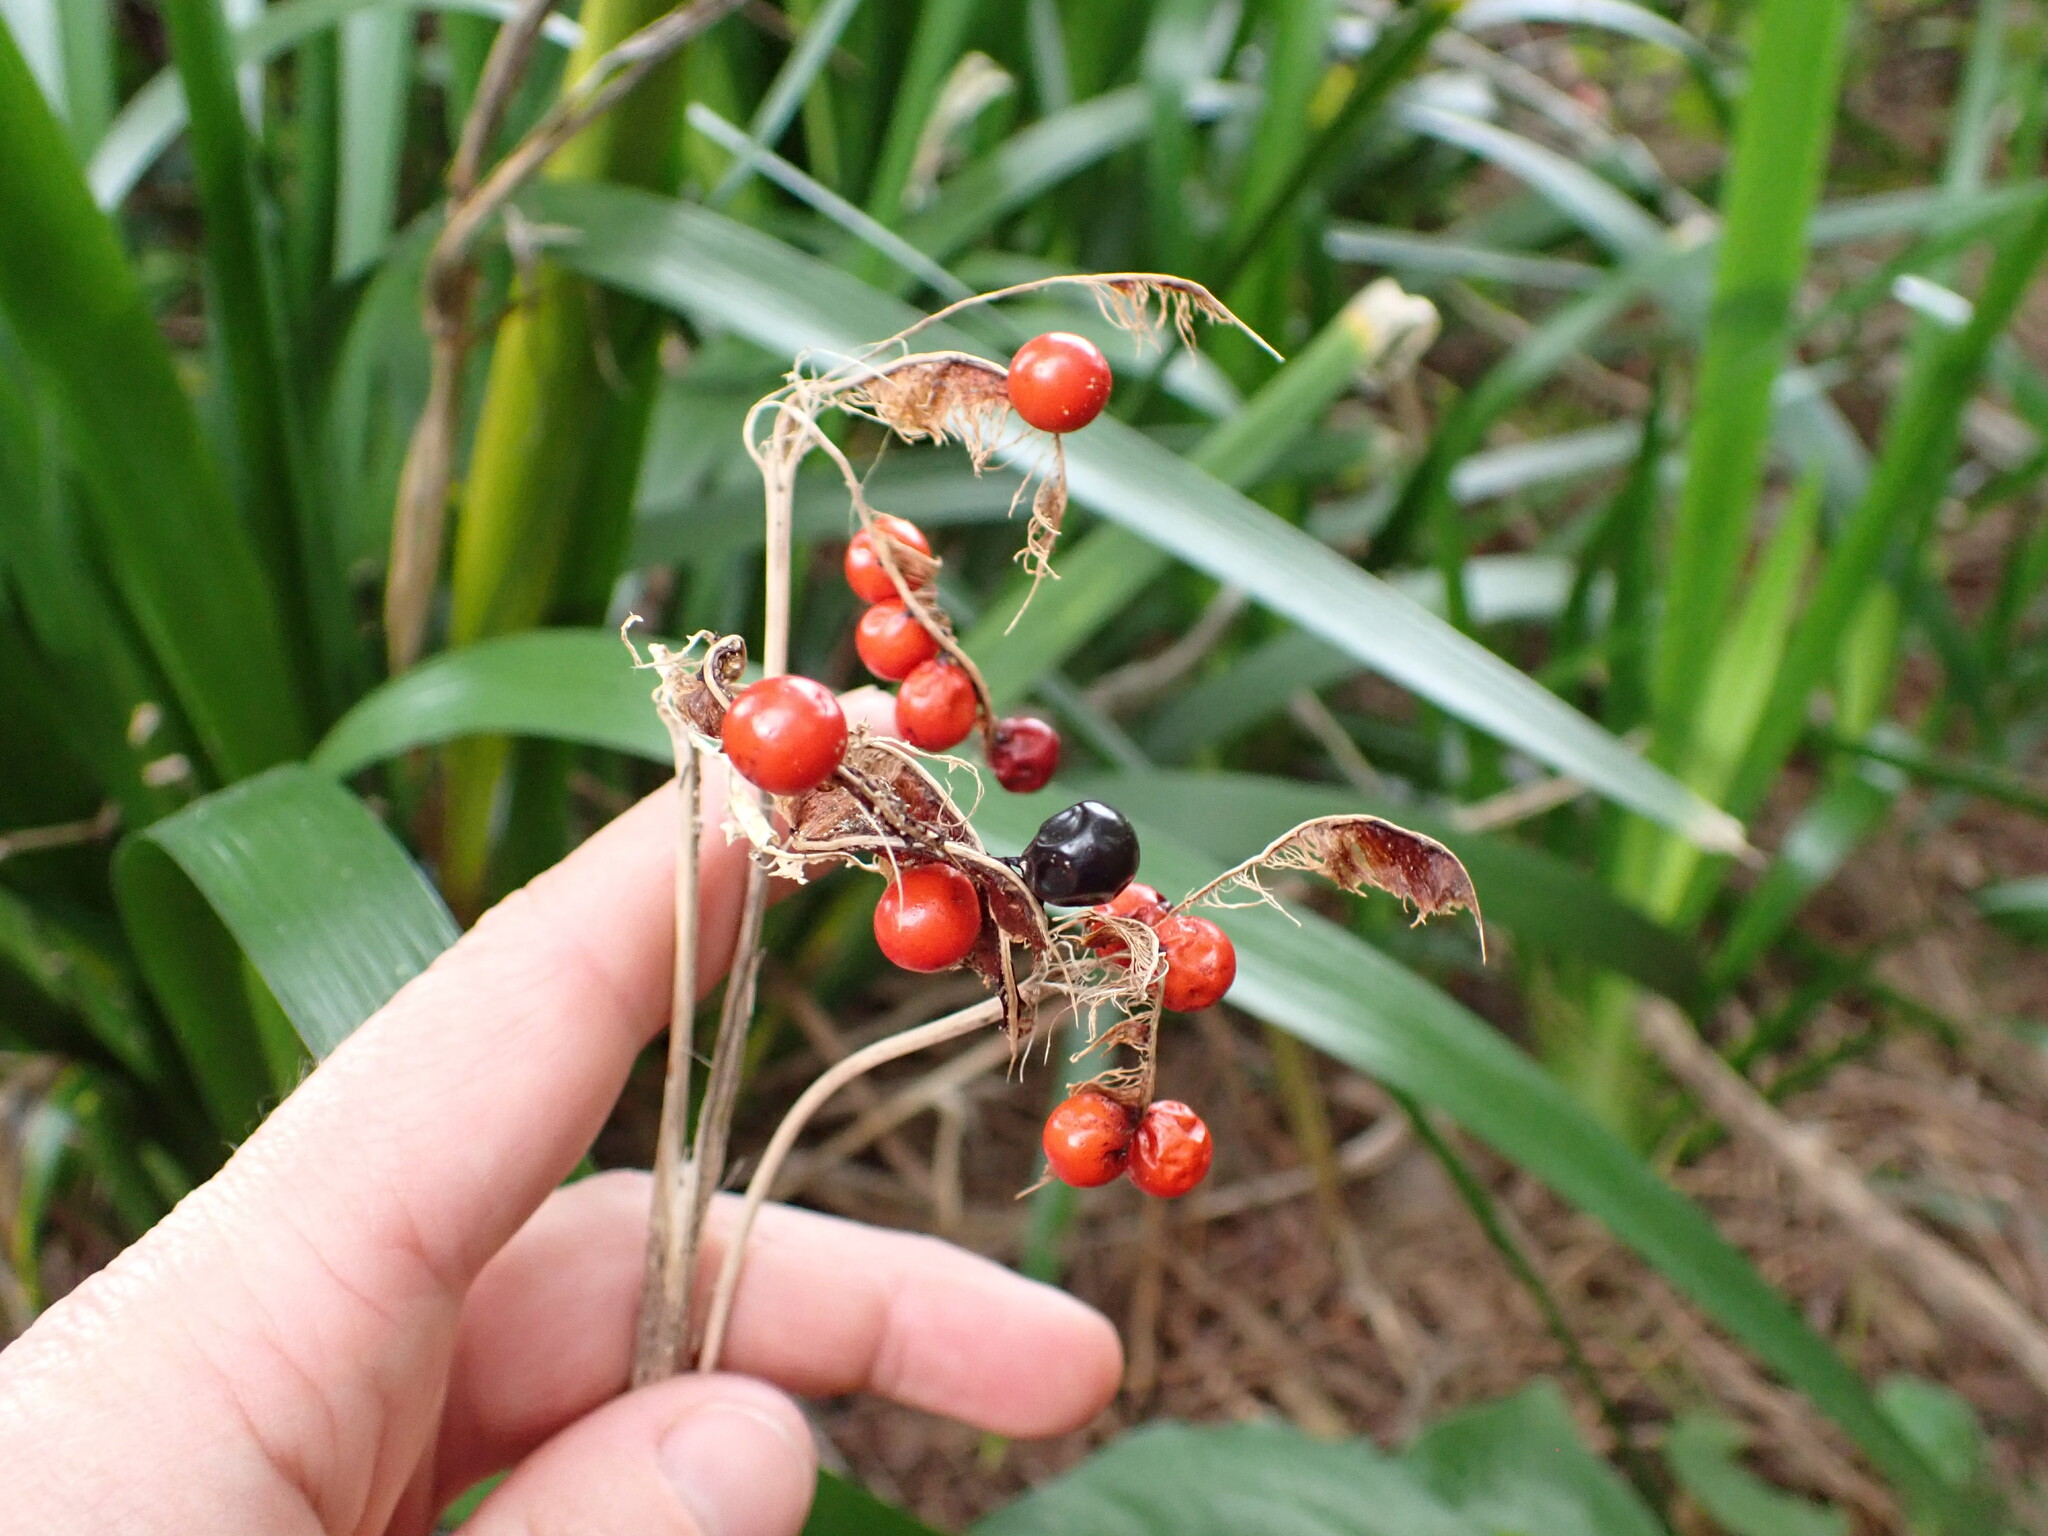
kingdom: Plantae
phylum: Tracheophyta
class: Liliopsida
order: Asparagales
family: Iridaceae
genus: Iris
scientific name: Iris foetidissima
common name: Stinking iris
